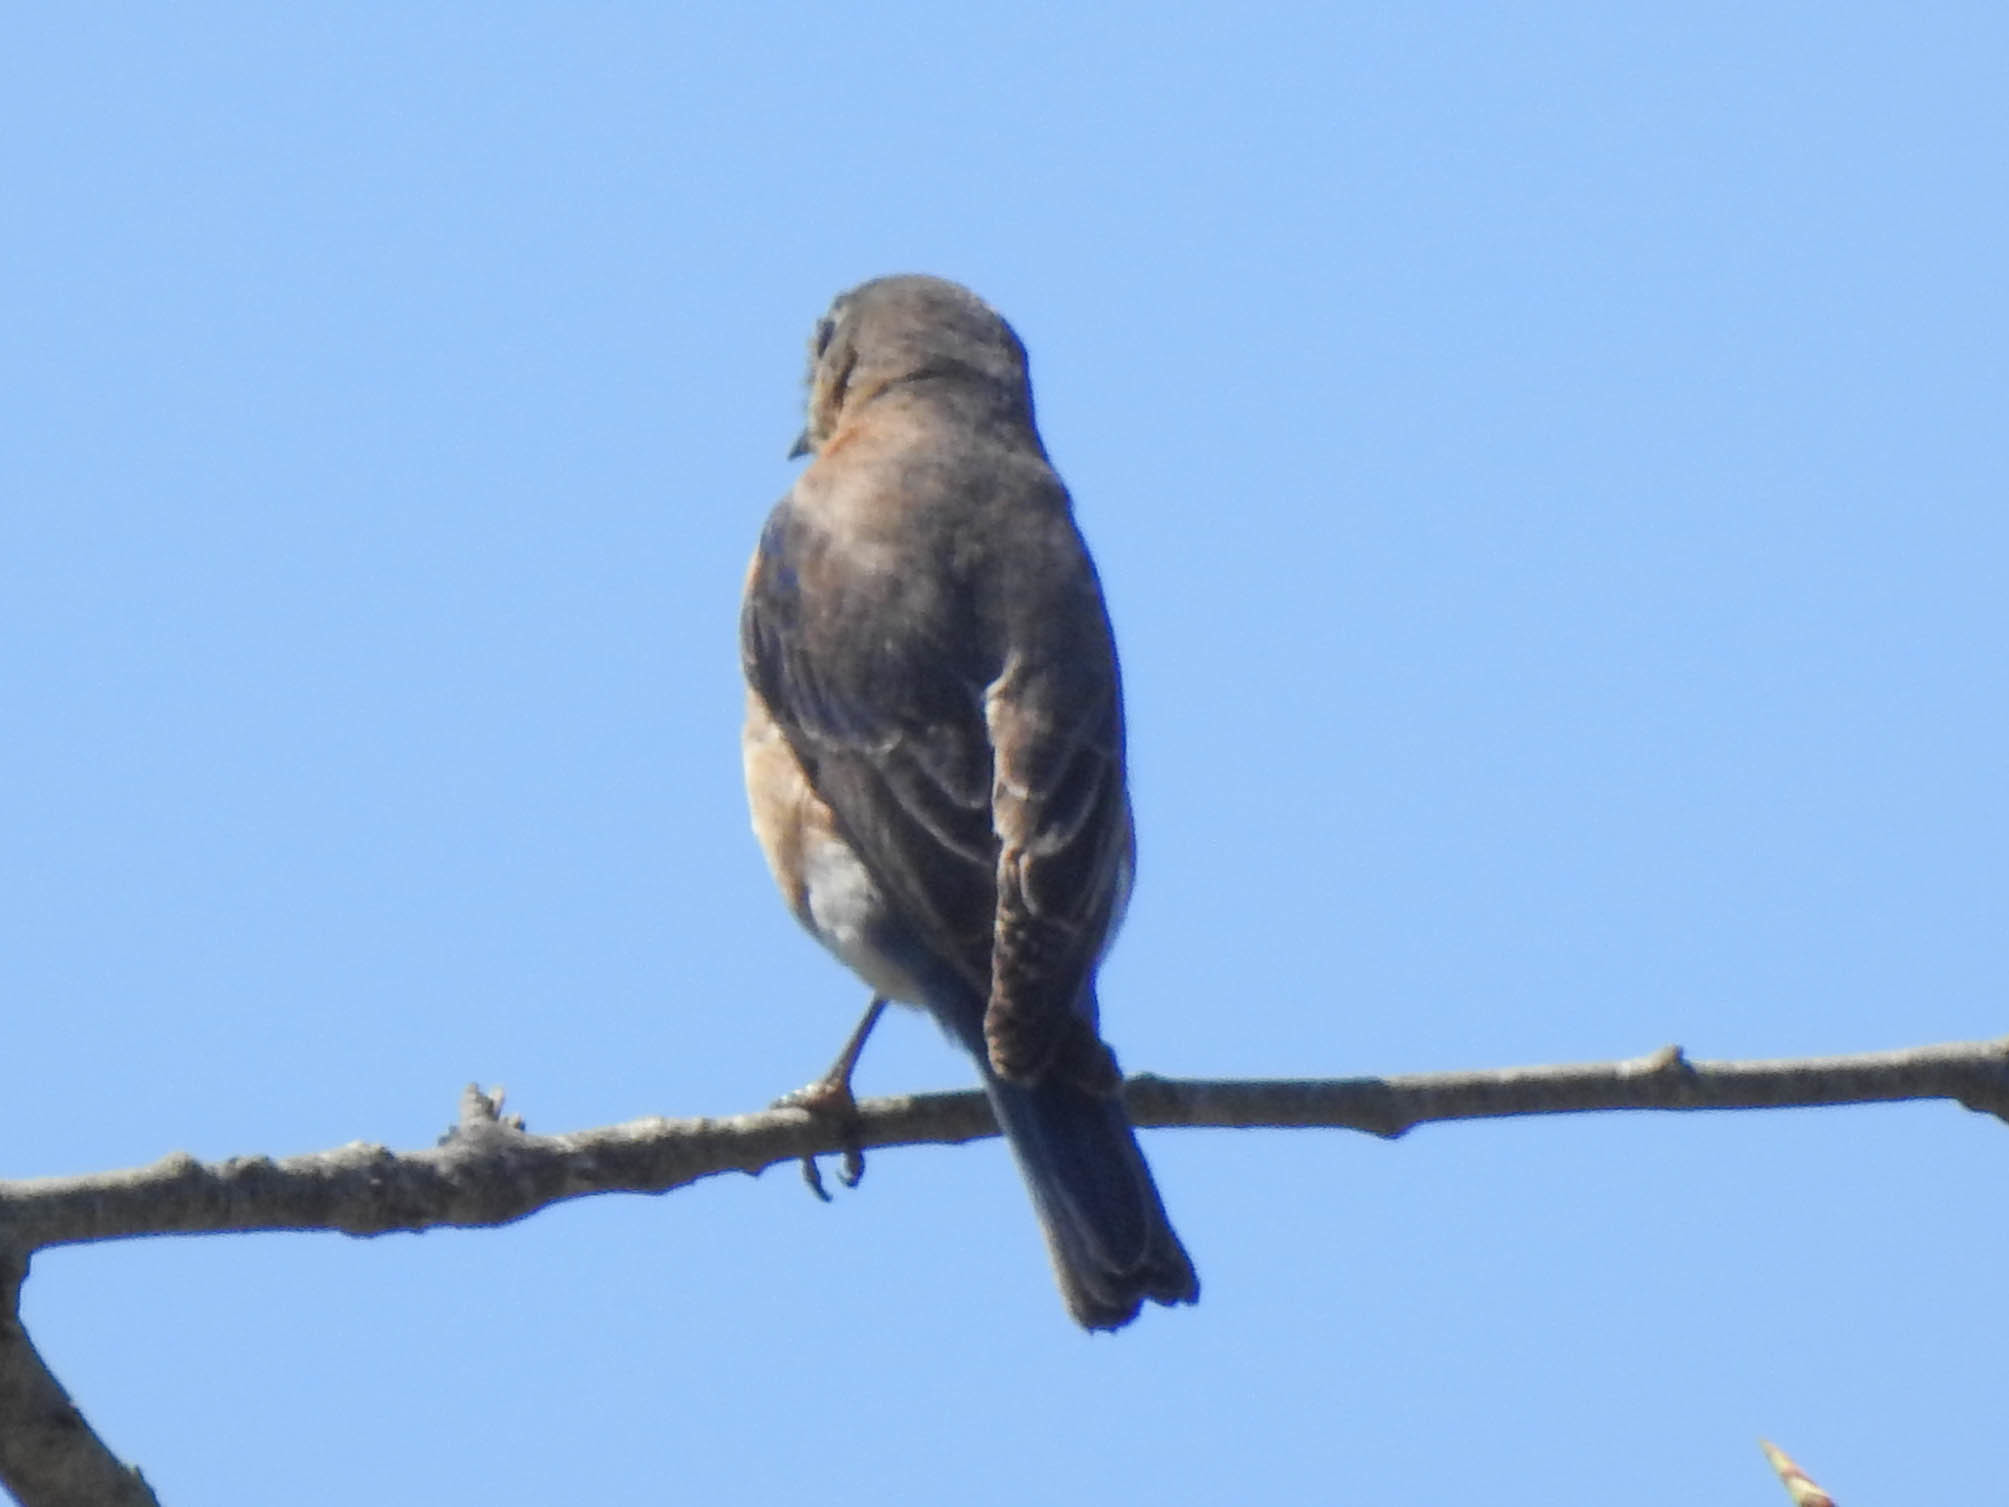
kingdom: Animalia
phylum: Chordata
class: Aves
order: Passeriformes
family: Turdidae
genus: Sialia
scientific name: Sialia sialis
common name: Eastern bluebird
